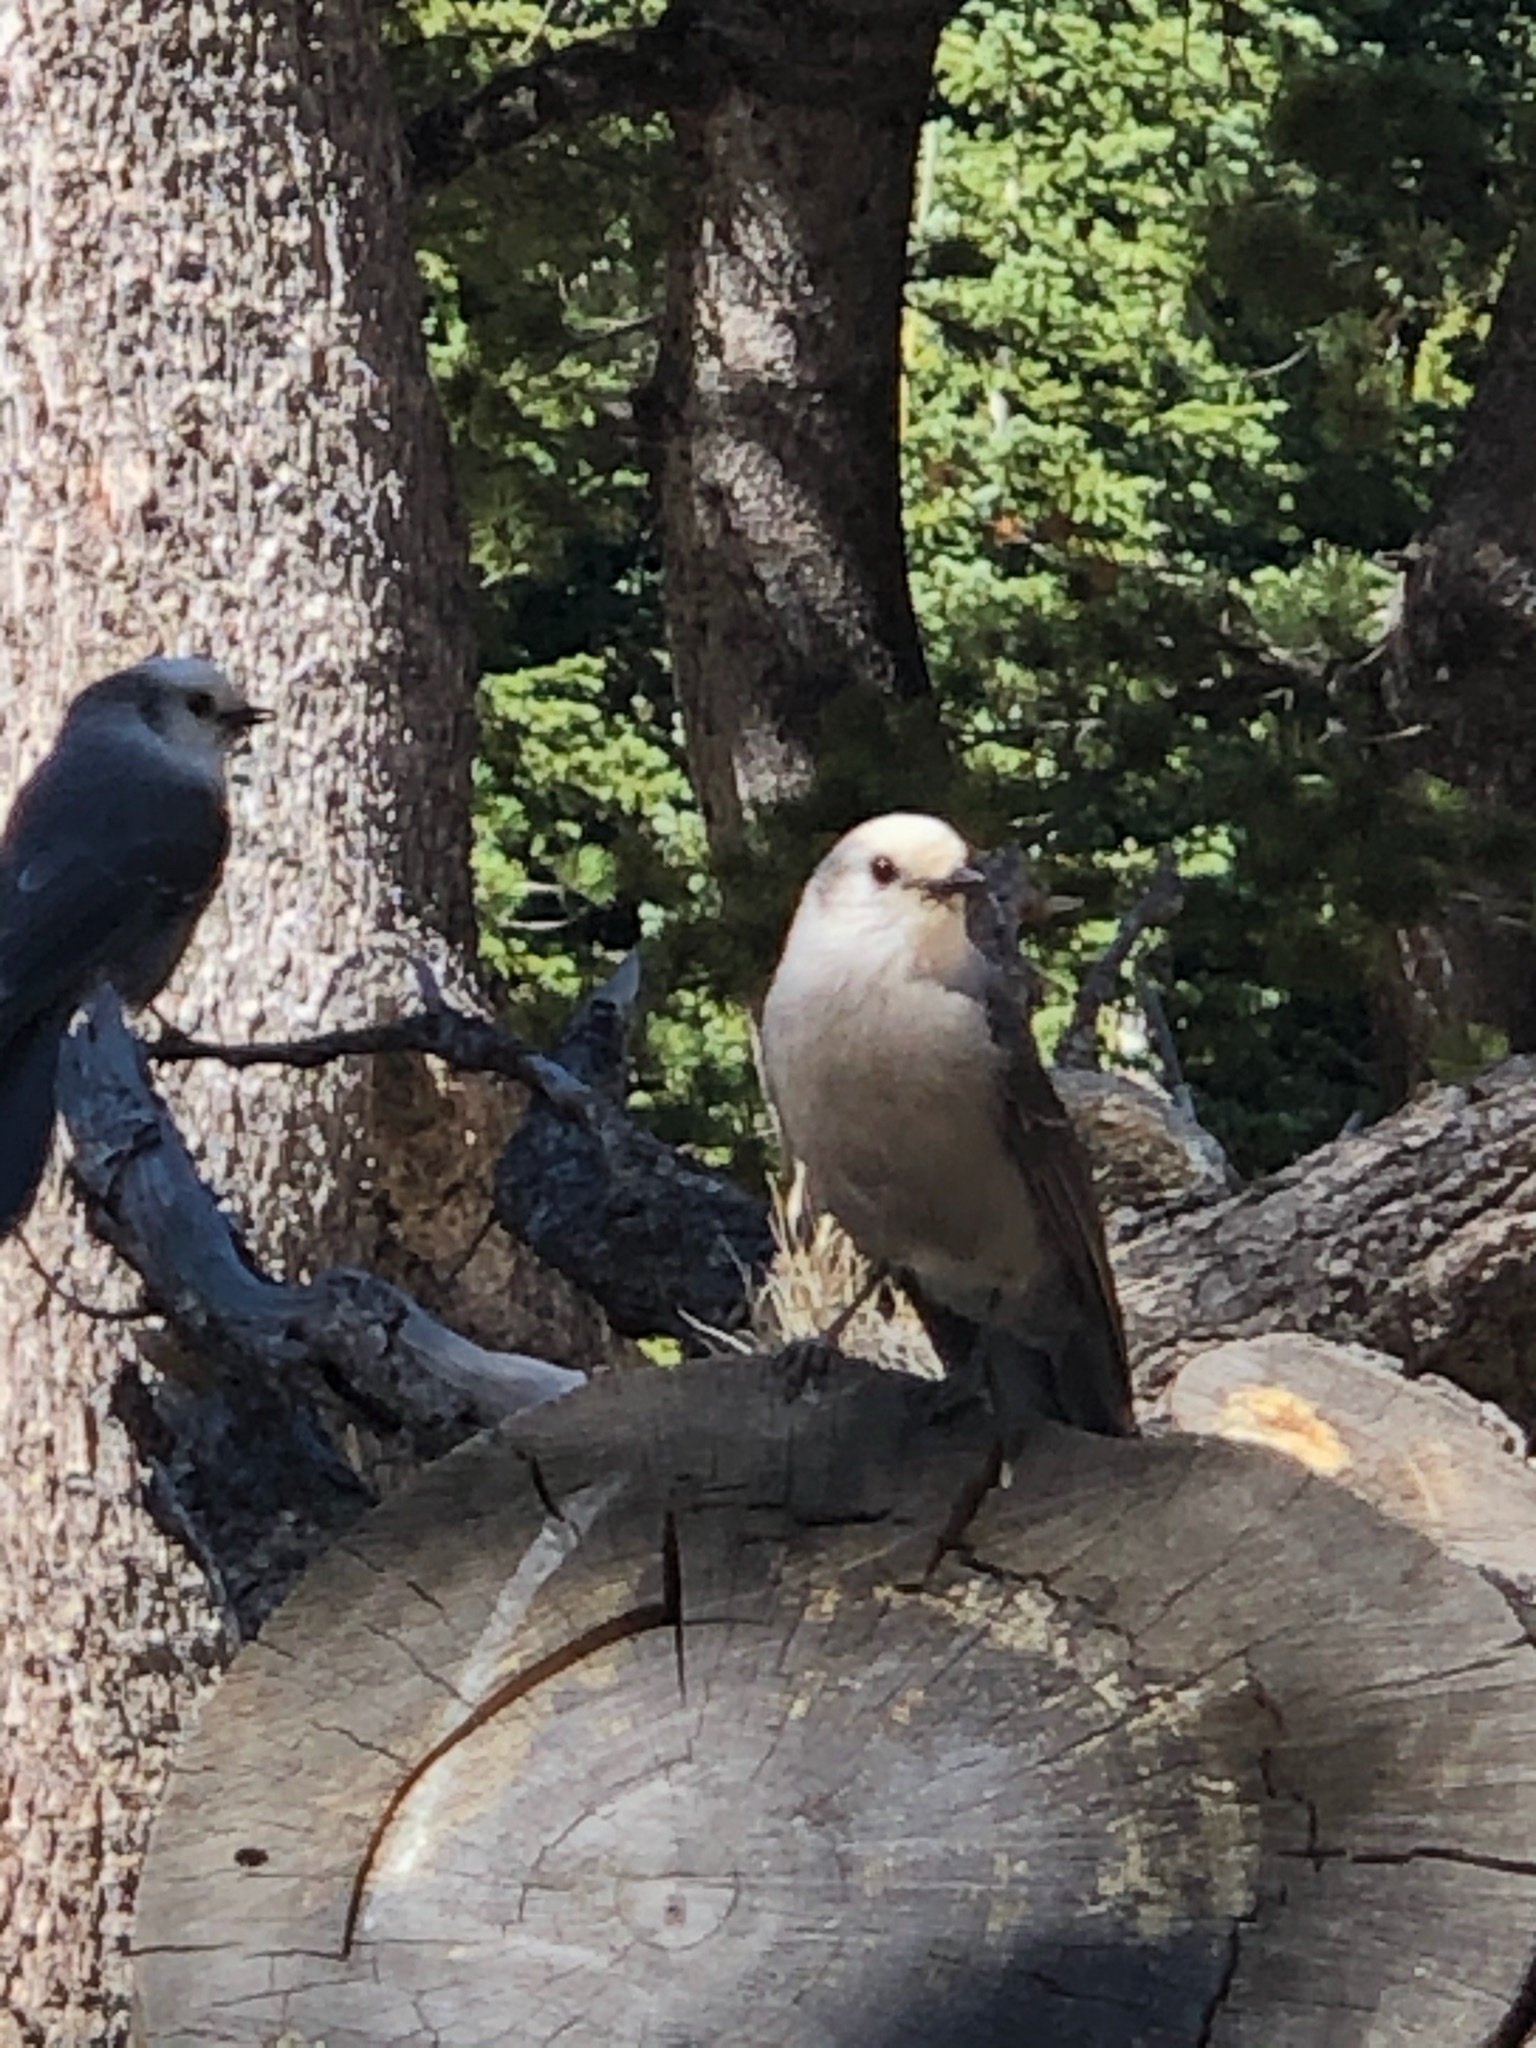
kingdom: Animalia
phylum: Chordata
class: Aves
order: Passeriformes
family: Corvidae
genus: Perisoreus
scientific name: Perisoreus canadensis
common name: Gray jay
